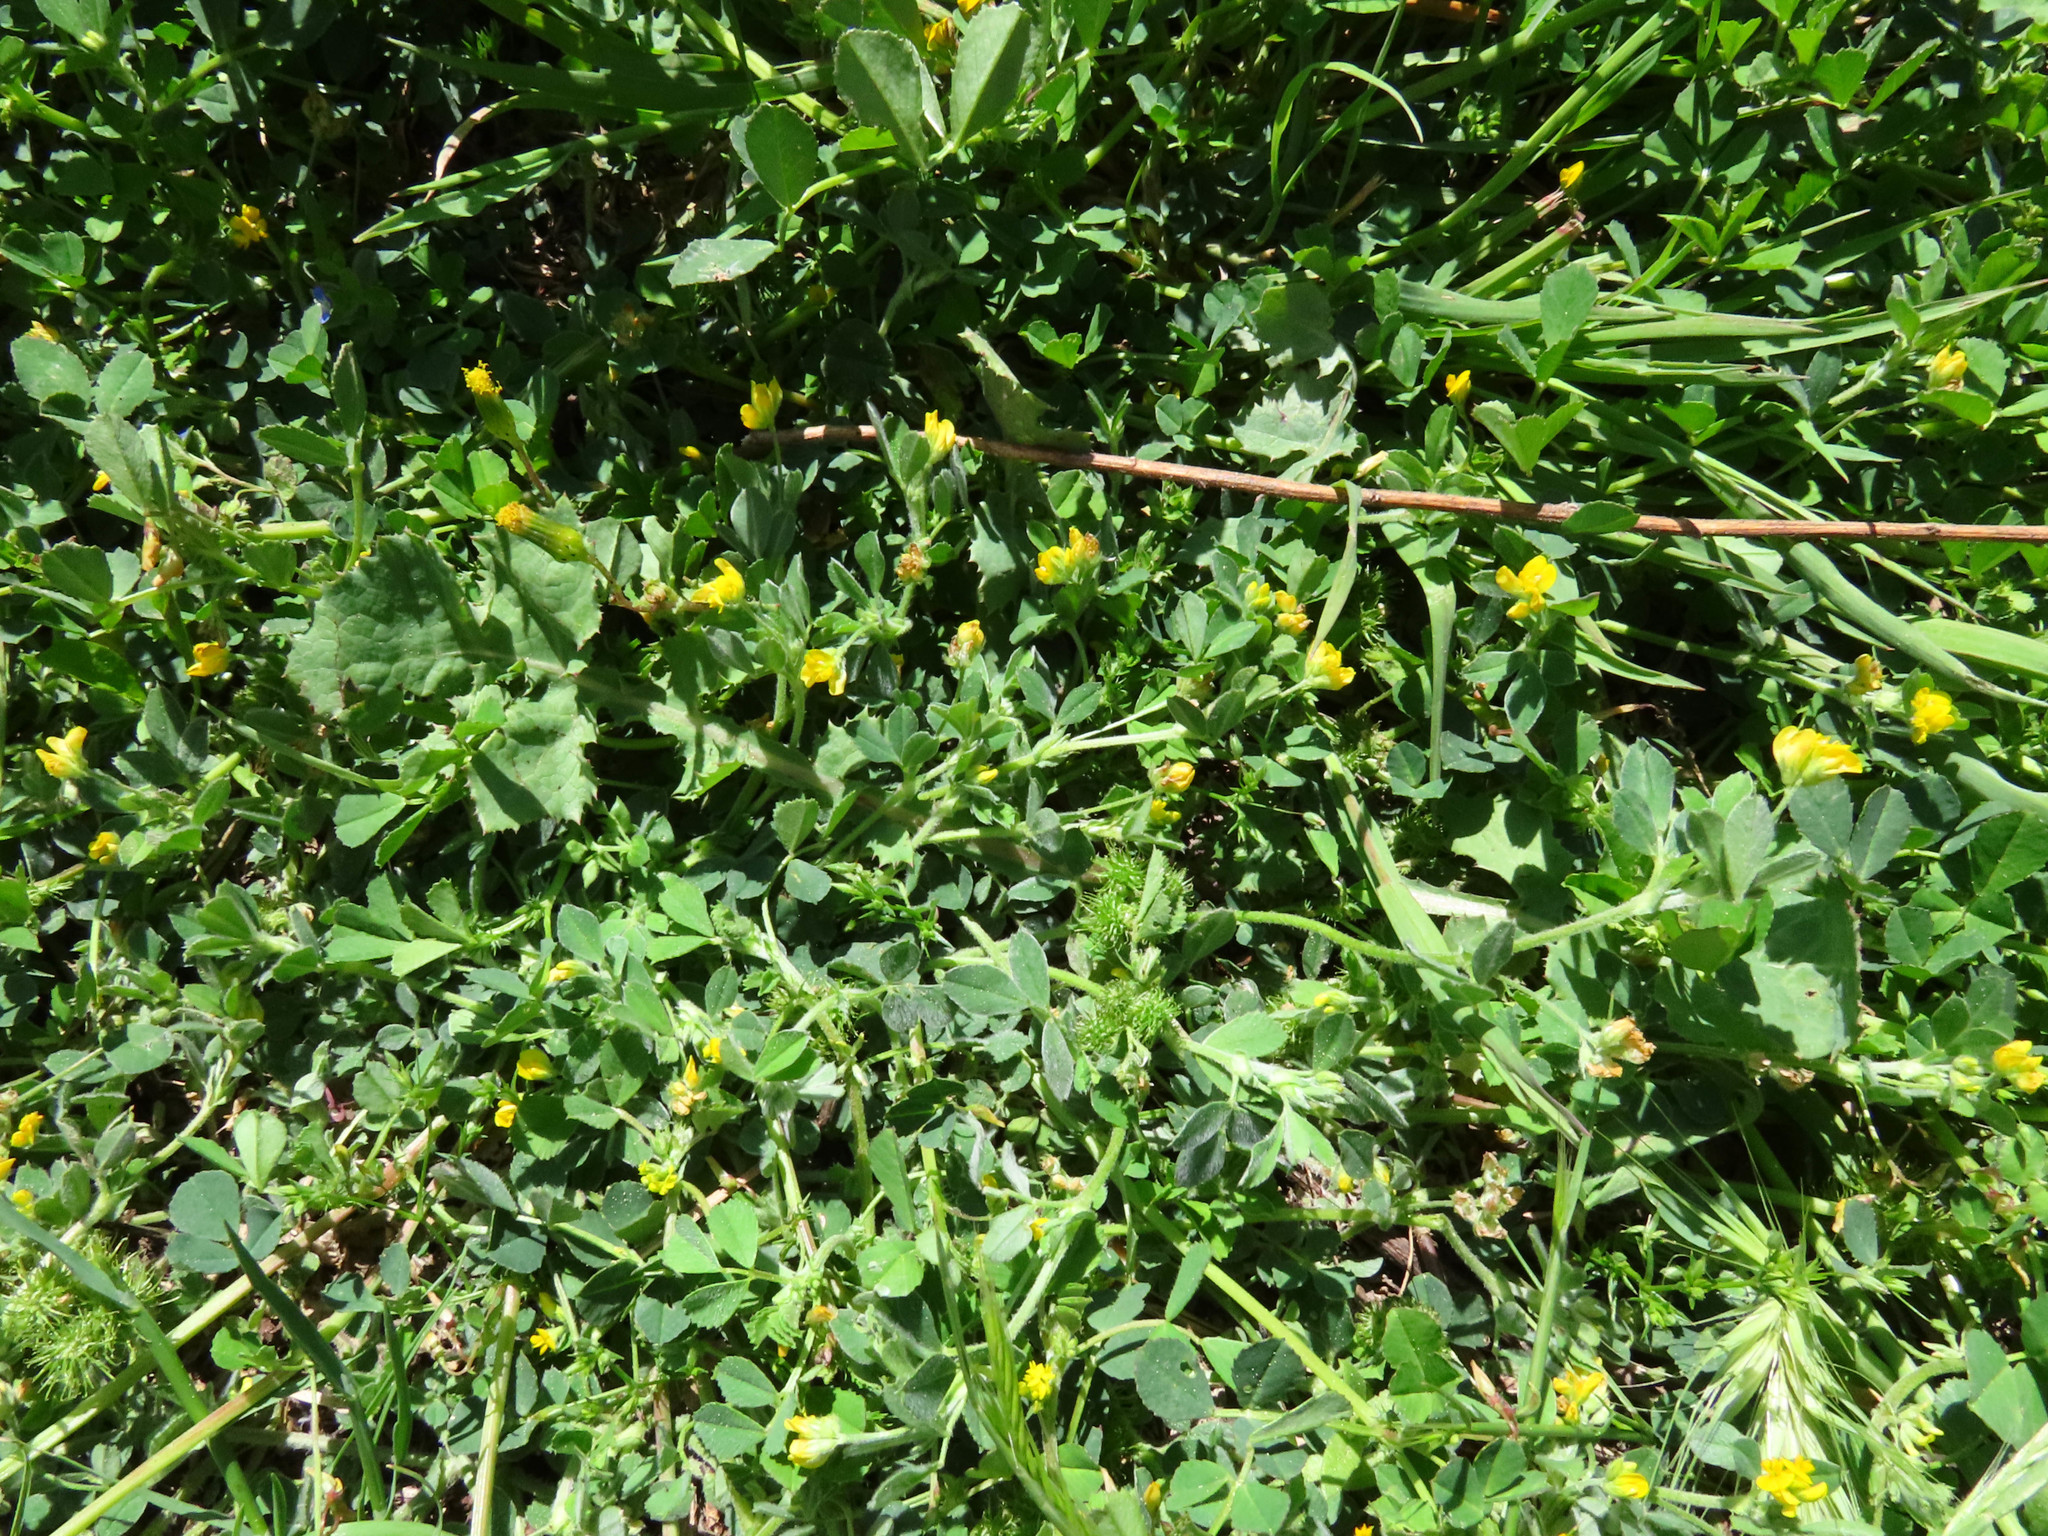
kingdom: Plantae
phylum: Tracheophyta
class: Magnoliopsida
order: Fabales
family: Fabaceae
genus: Medicago
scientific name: Medicago polymorpha
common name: Burclover
